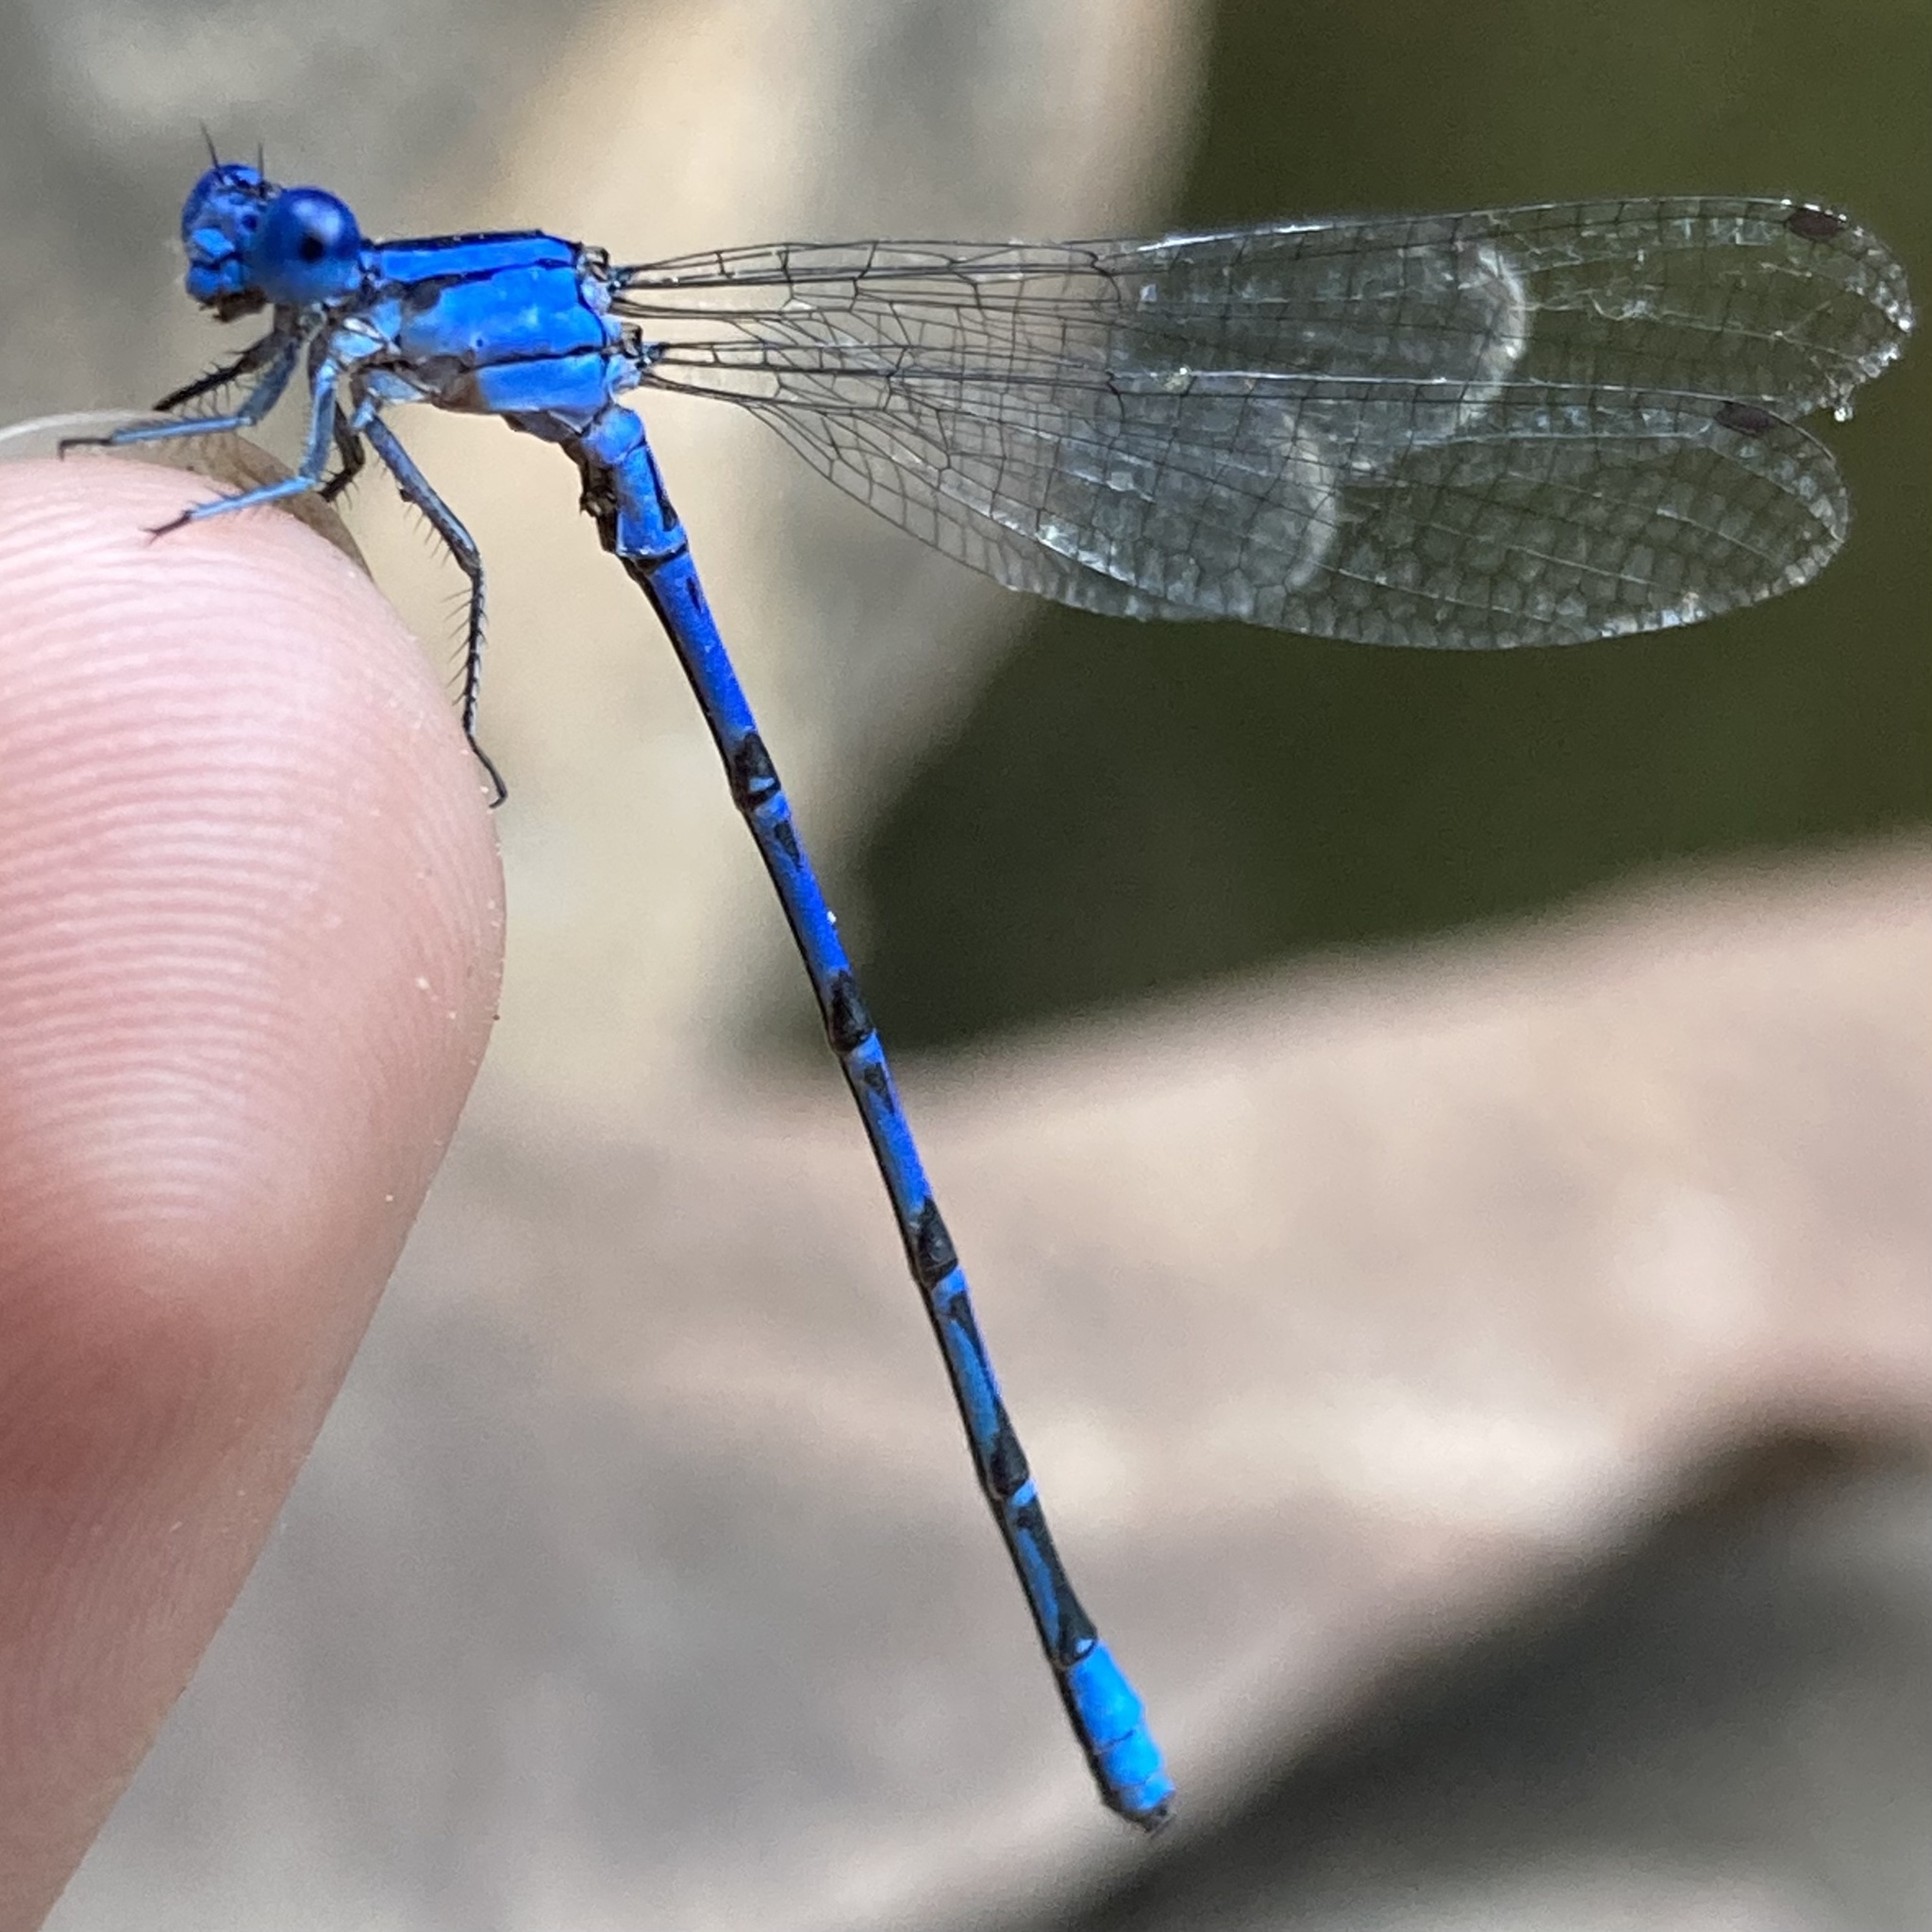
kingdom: Animalia
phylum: Arthropoda
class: Insecta
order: Odonata
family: Coenagrionidae
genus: Argia
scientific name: Argia vivida
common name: Vivid dancer
